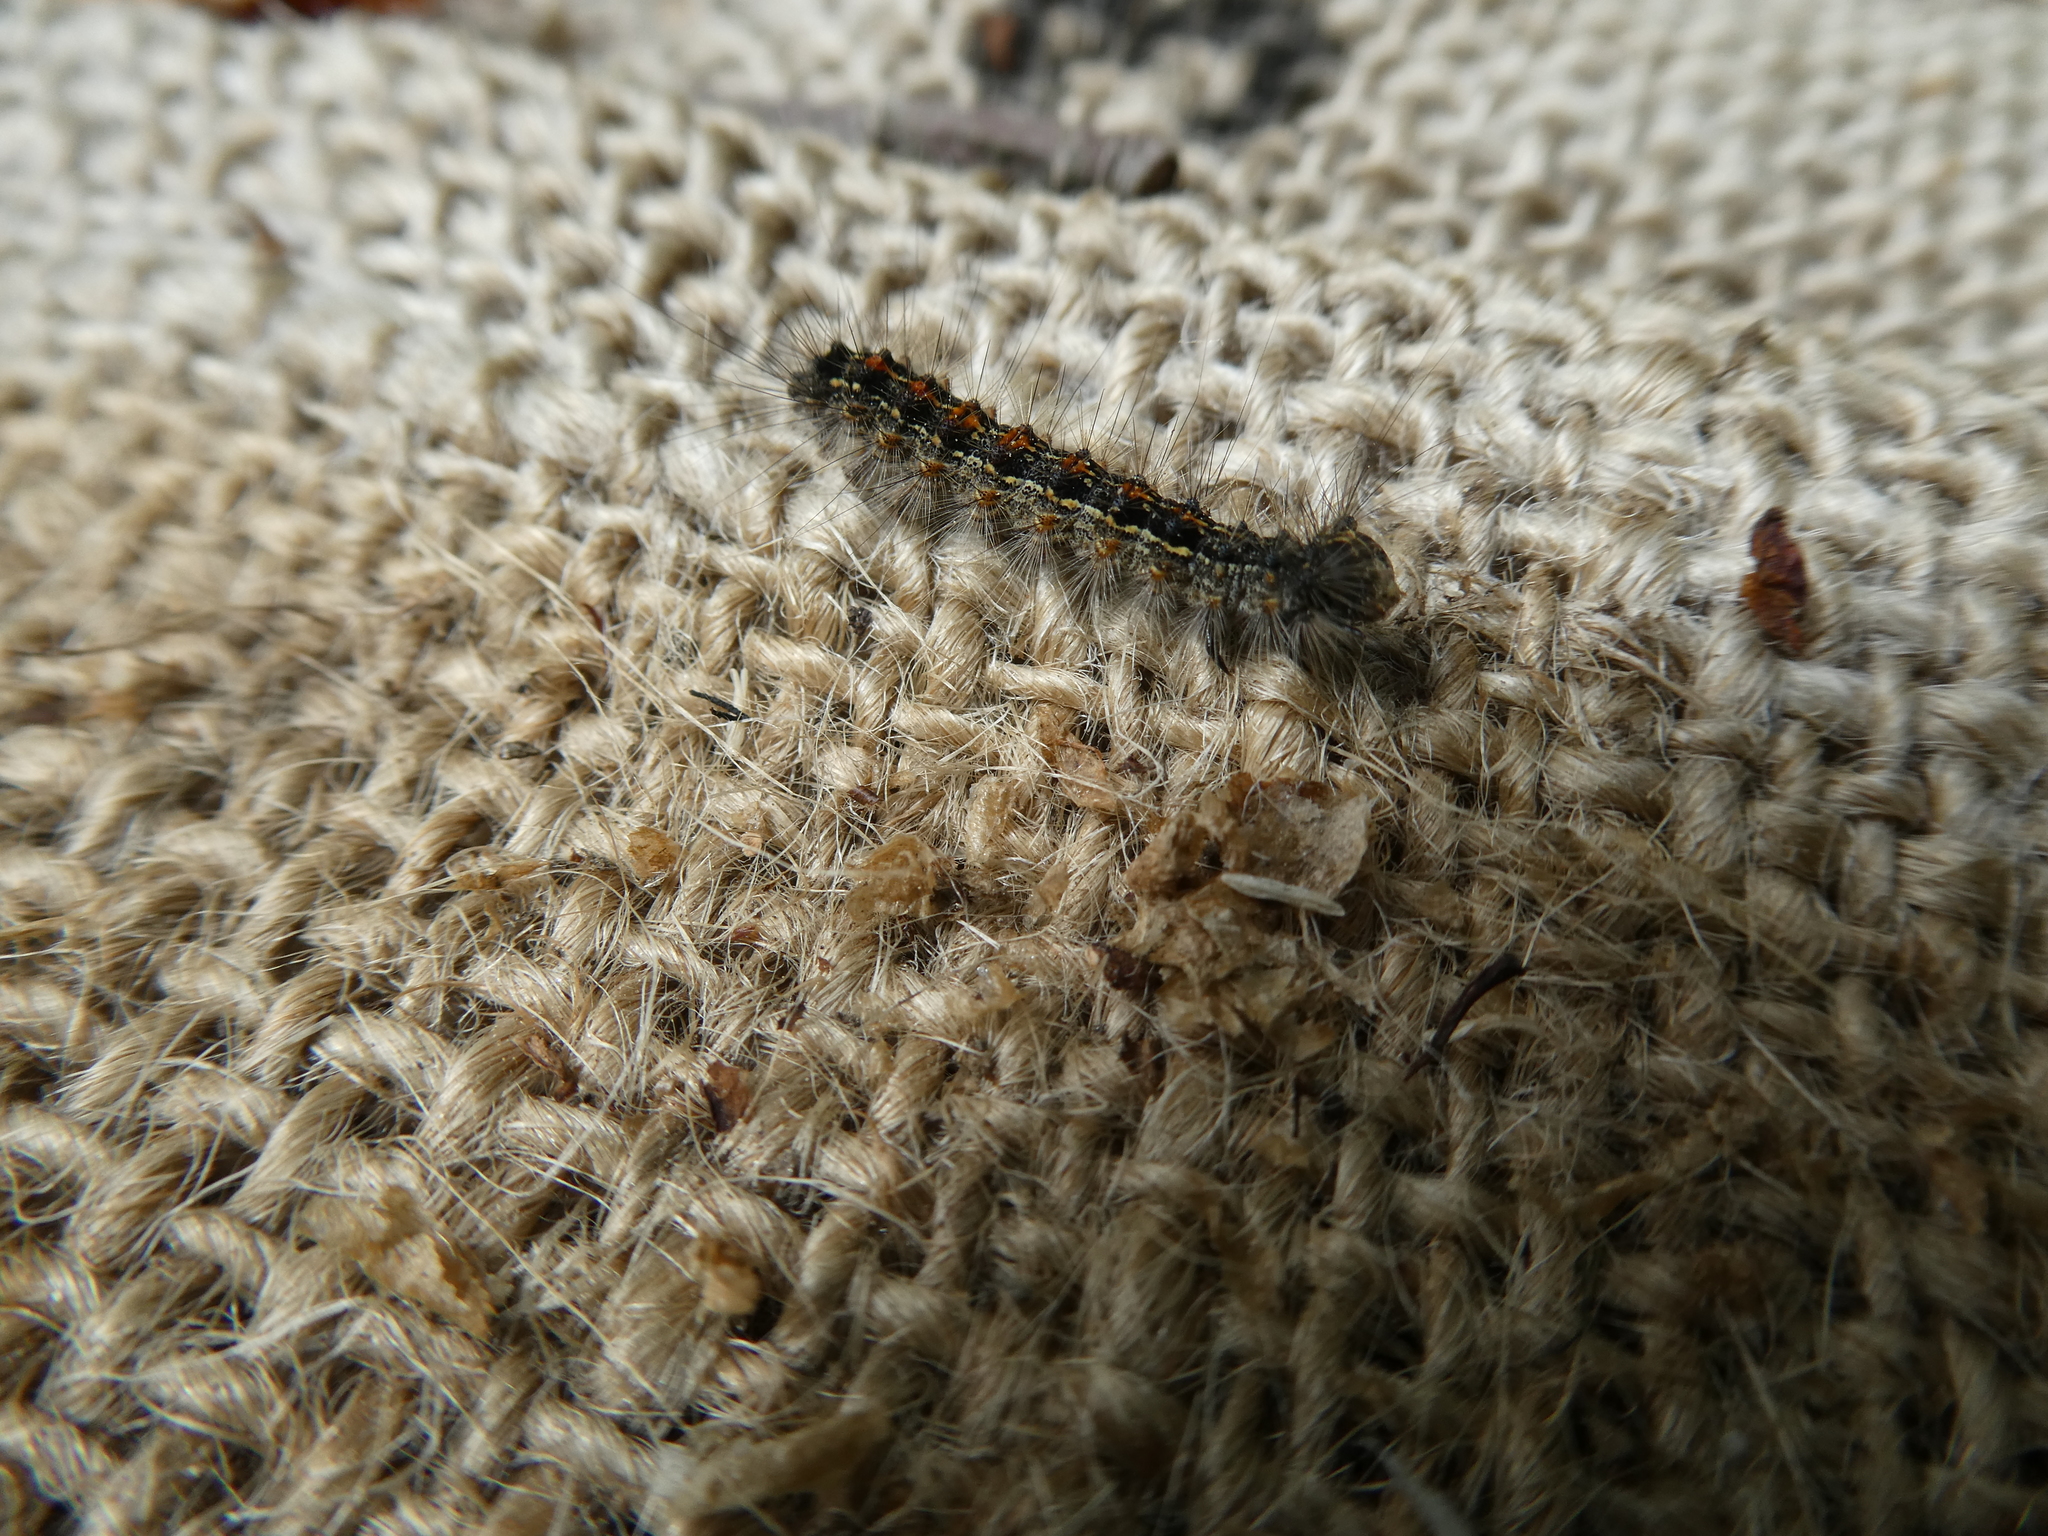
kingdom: Animalia
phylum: Arthropoda
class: Insecta
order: Lepidoptera
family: Erebidae
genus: Lymantria
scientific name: Lymantria dispar
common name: Gypsy moth
